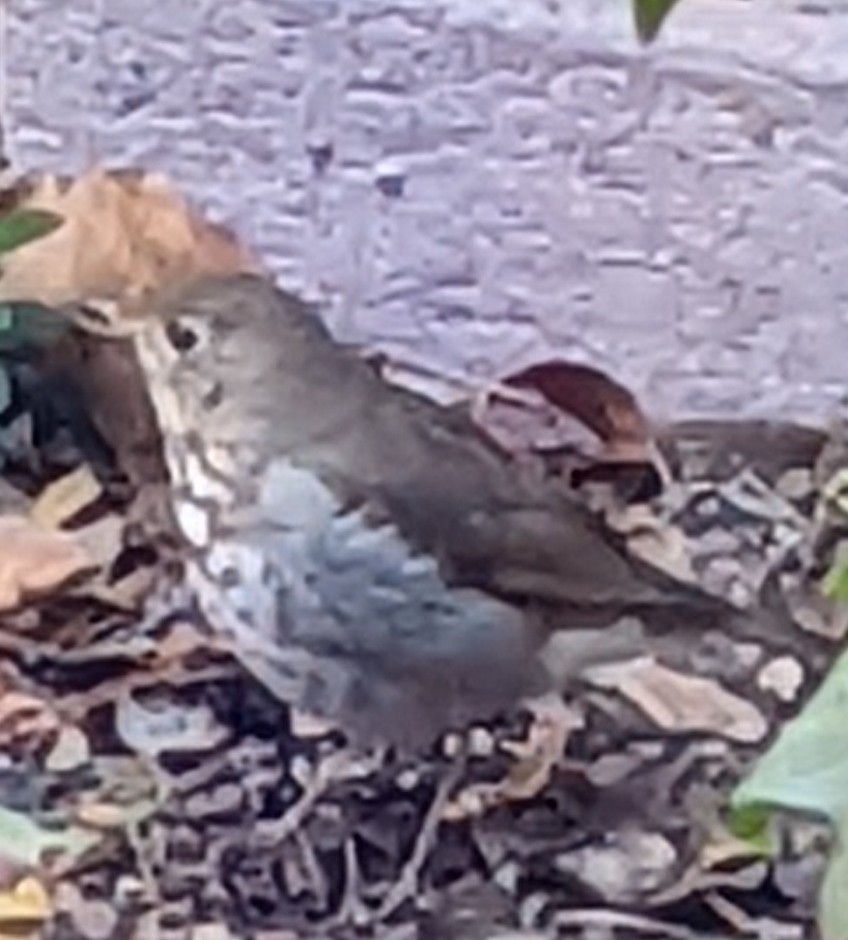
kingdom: Animalia
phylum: Chordata
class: Aves
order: Passeriformes
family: Turdidae
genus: Catharus
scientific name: Catharus guttatus
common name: Hermit thrush
